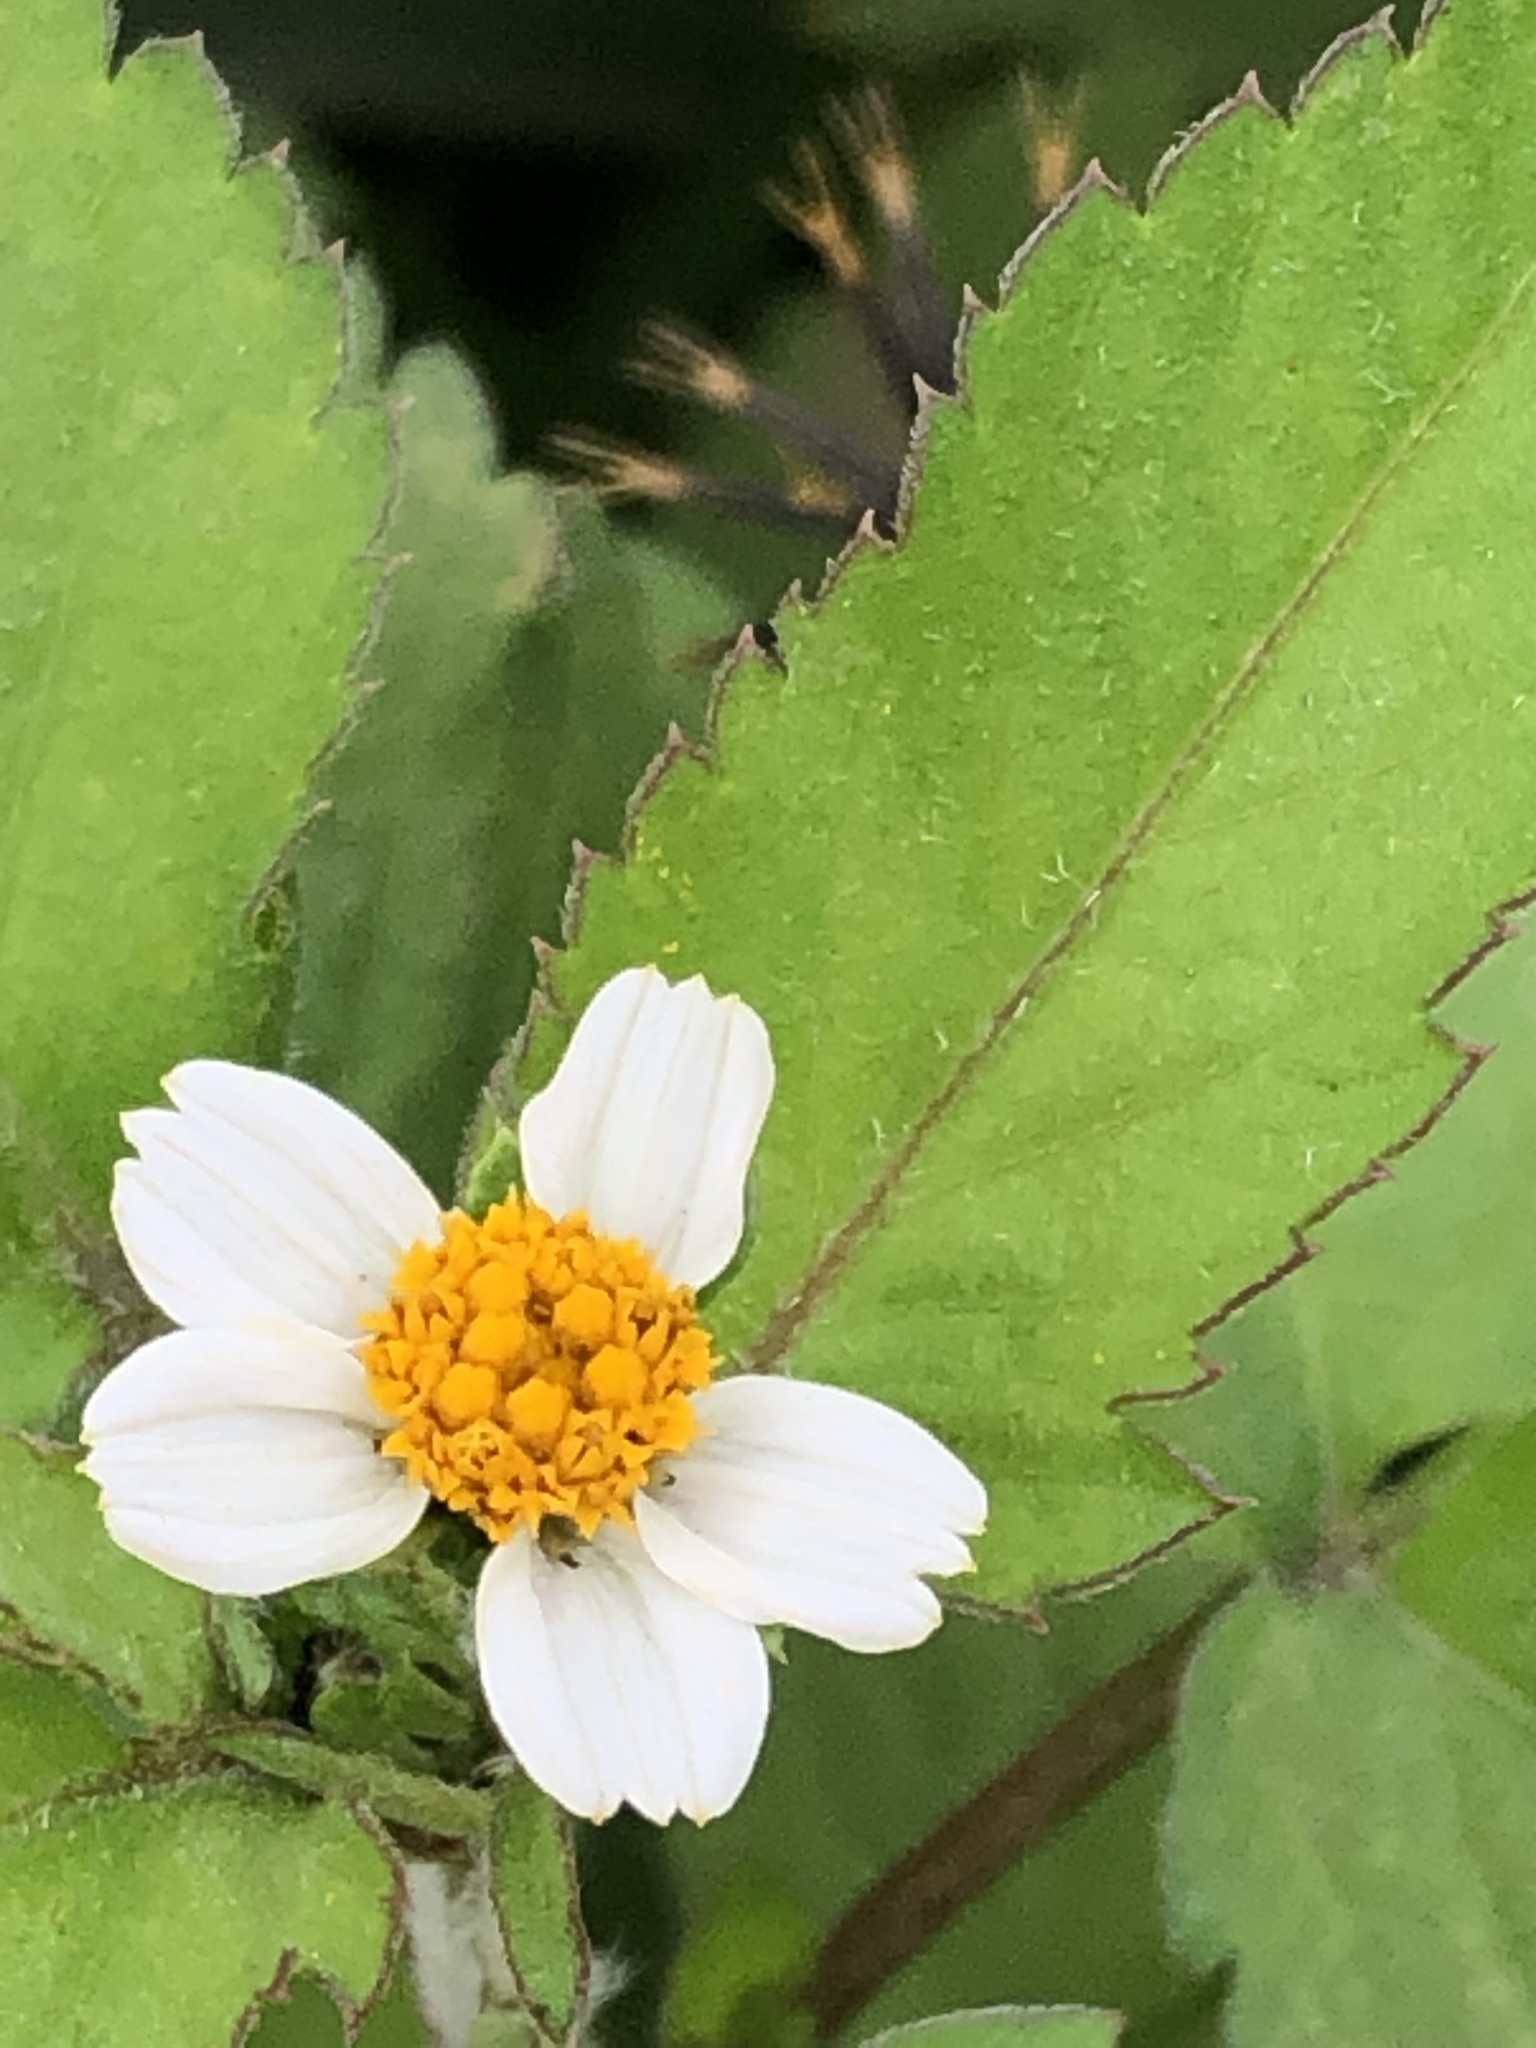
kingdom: Plantae
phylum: Tracheophyta
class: Magnoliopsida
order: Asterales
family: Asteraceae
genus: Bidens
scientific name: Bidens alba
